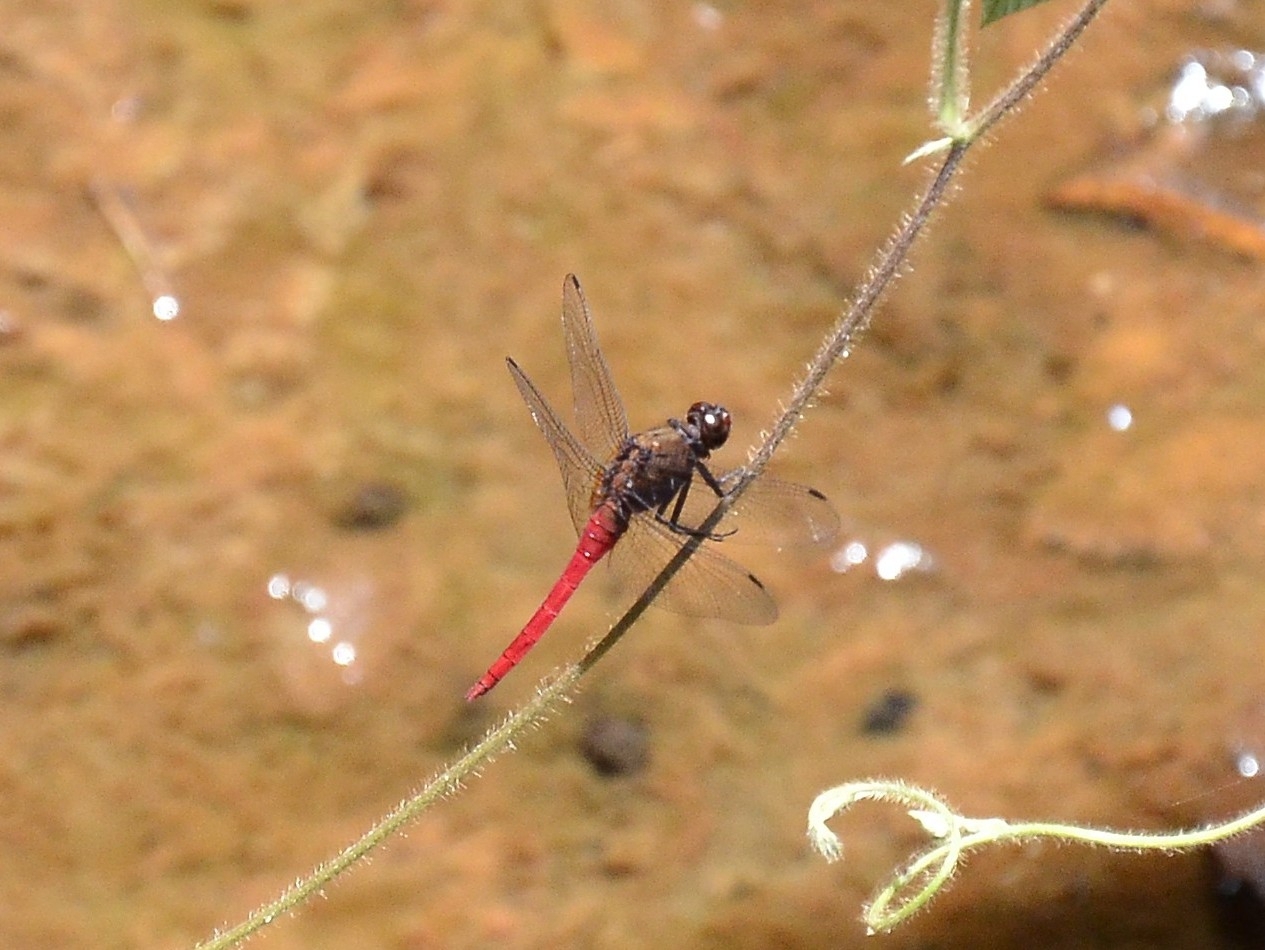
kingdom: Animalia
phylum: Arthropoda
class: Insecta
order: Odonata
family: Libellulidae
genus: Orthetrum
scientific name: Orthetrum chrysis
